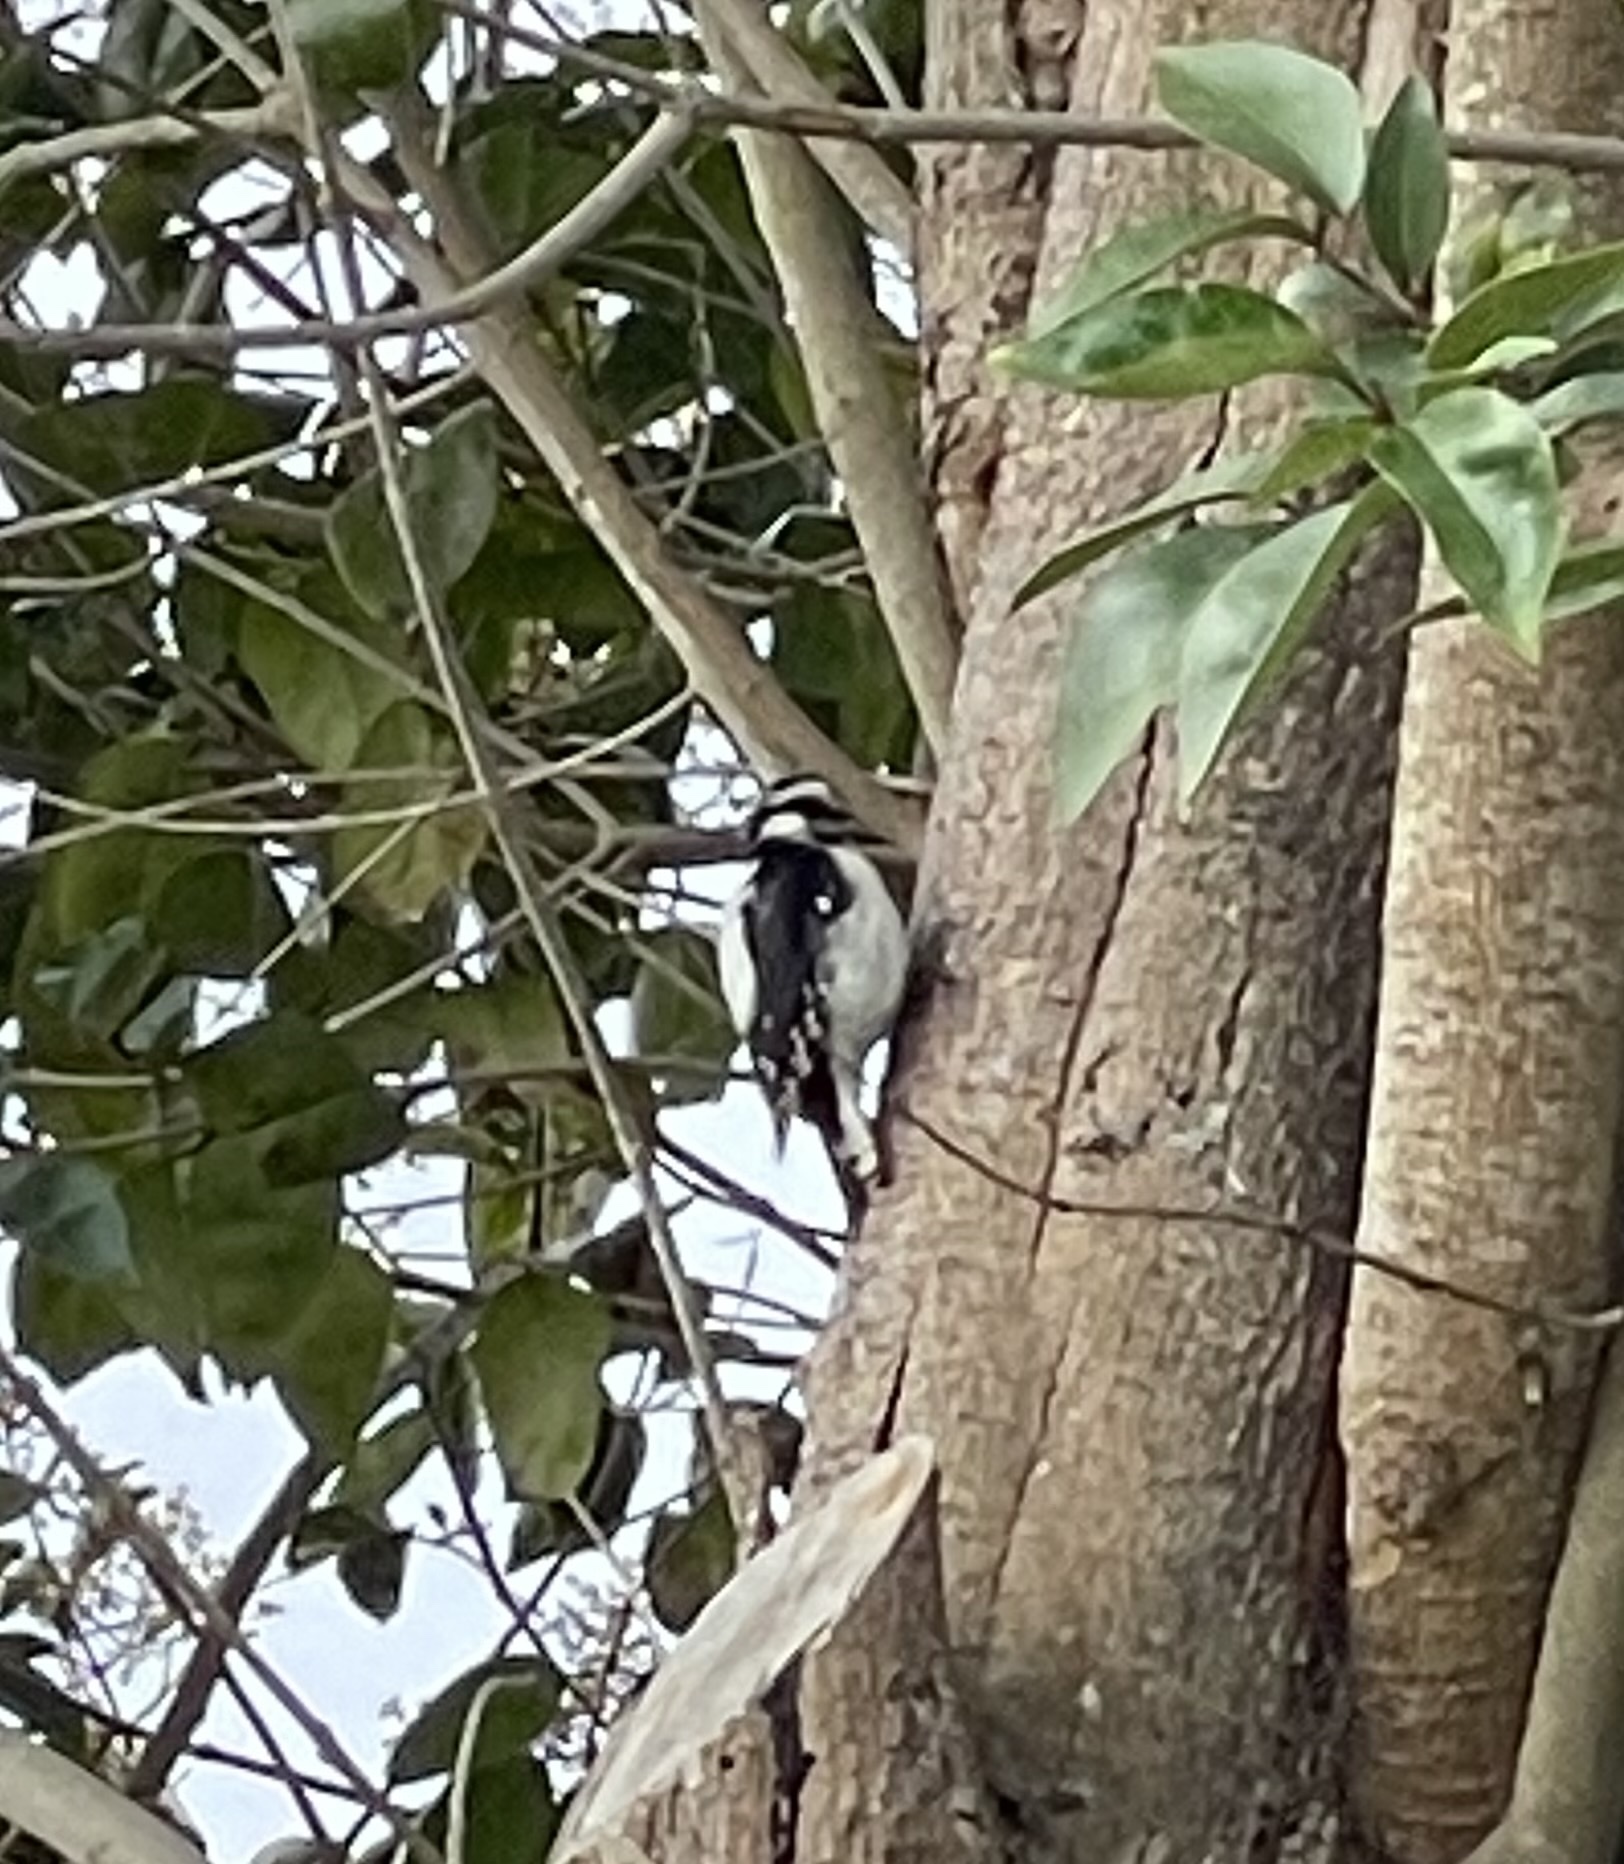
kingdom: Animalia
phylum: Chordata
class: Aves
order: Piciformes
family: Picidae
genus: Dryobates
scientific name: Dryobates pubescens
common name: Downy woodpecker
